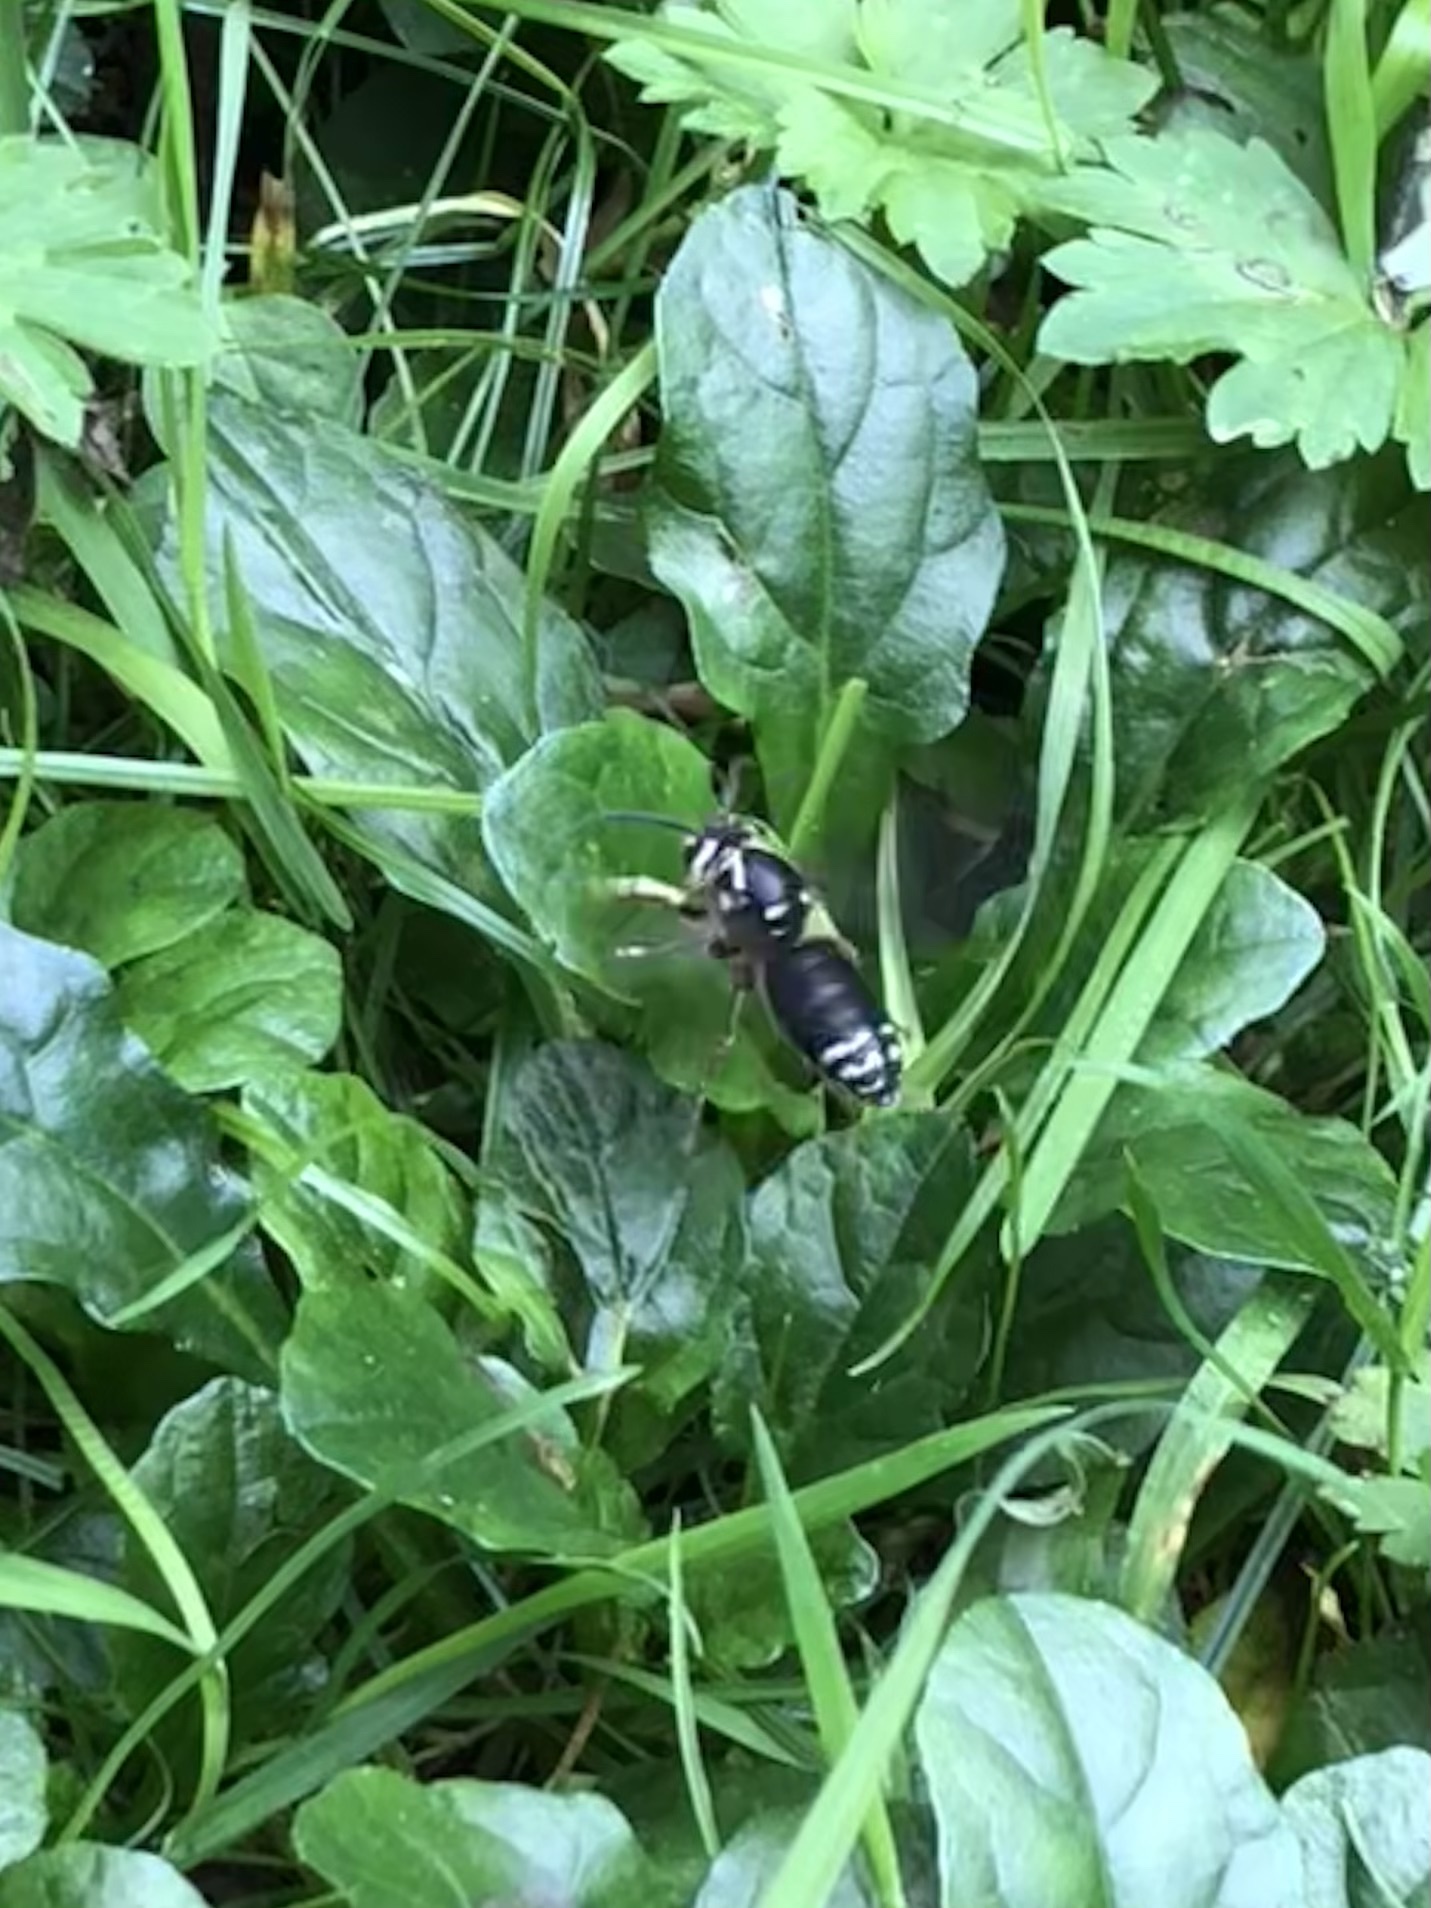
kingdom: Animalia
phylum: Arthropoda
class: Insecta
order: Hymenoptera
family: Vespidae
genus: Dolichovespula
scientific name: Dolichovespula maculata
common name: Bald-faced hornet
